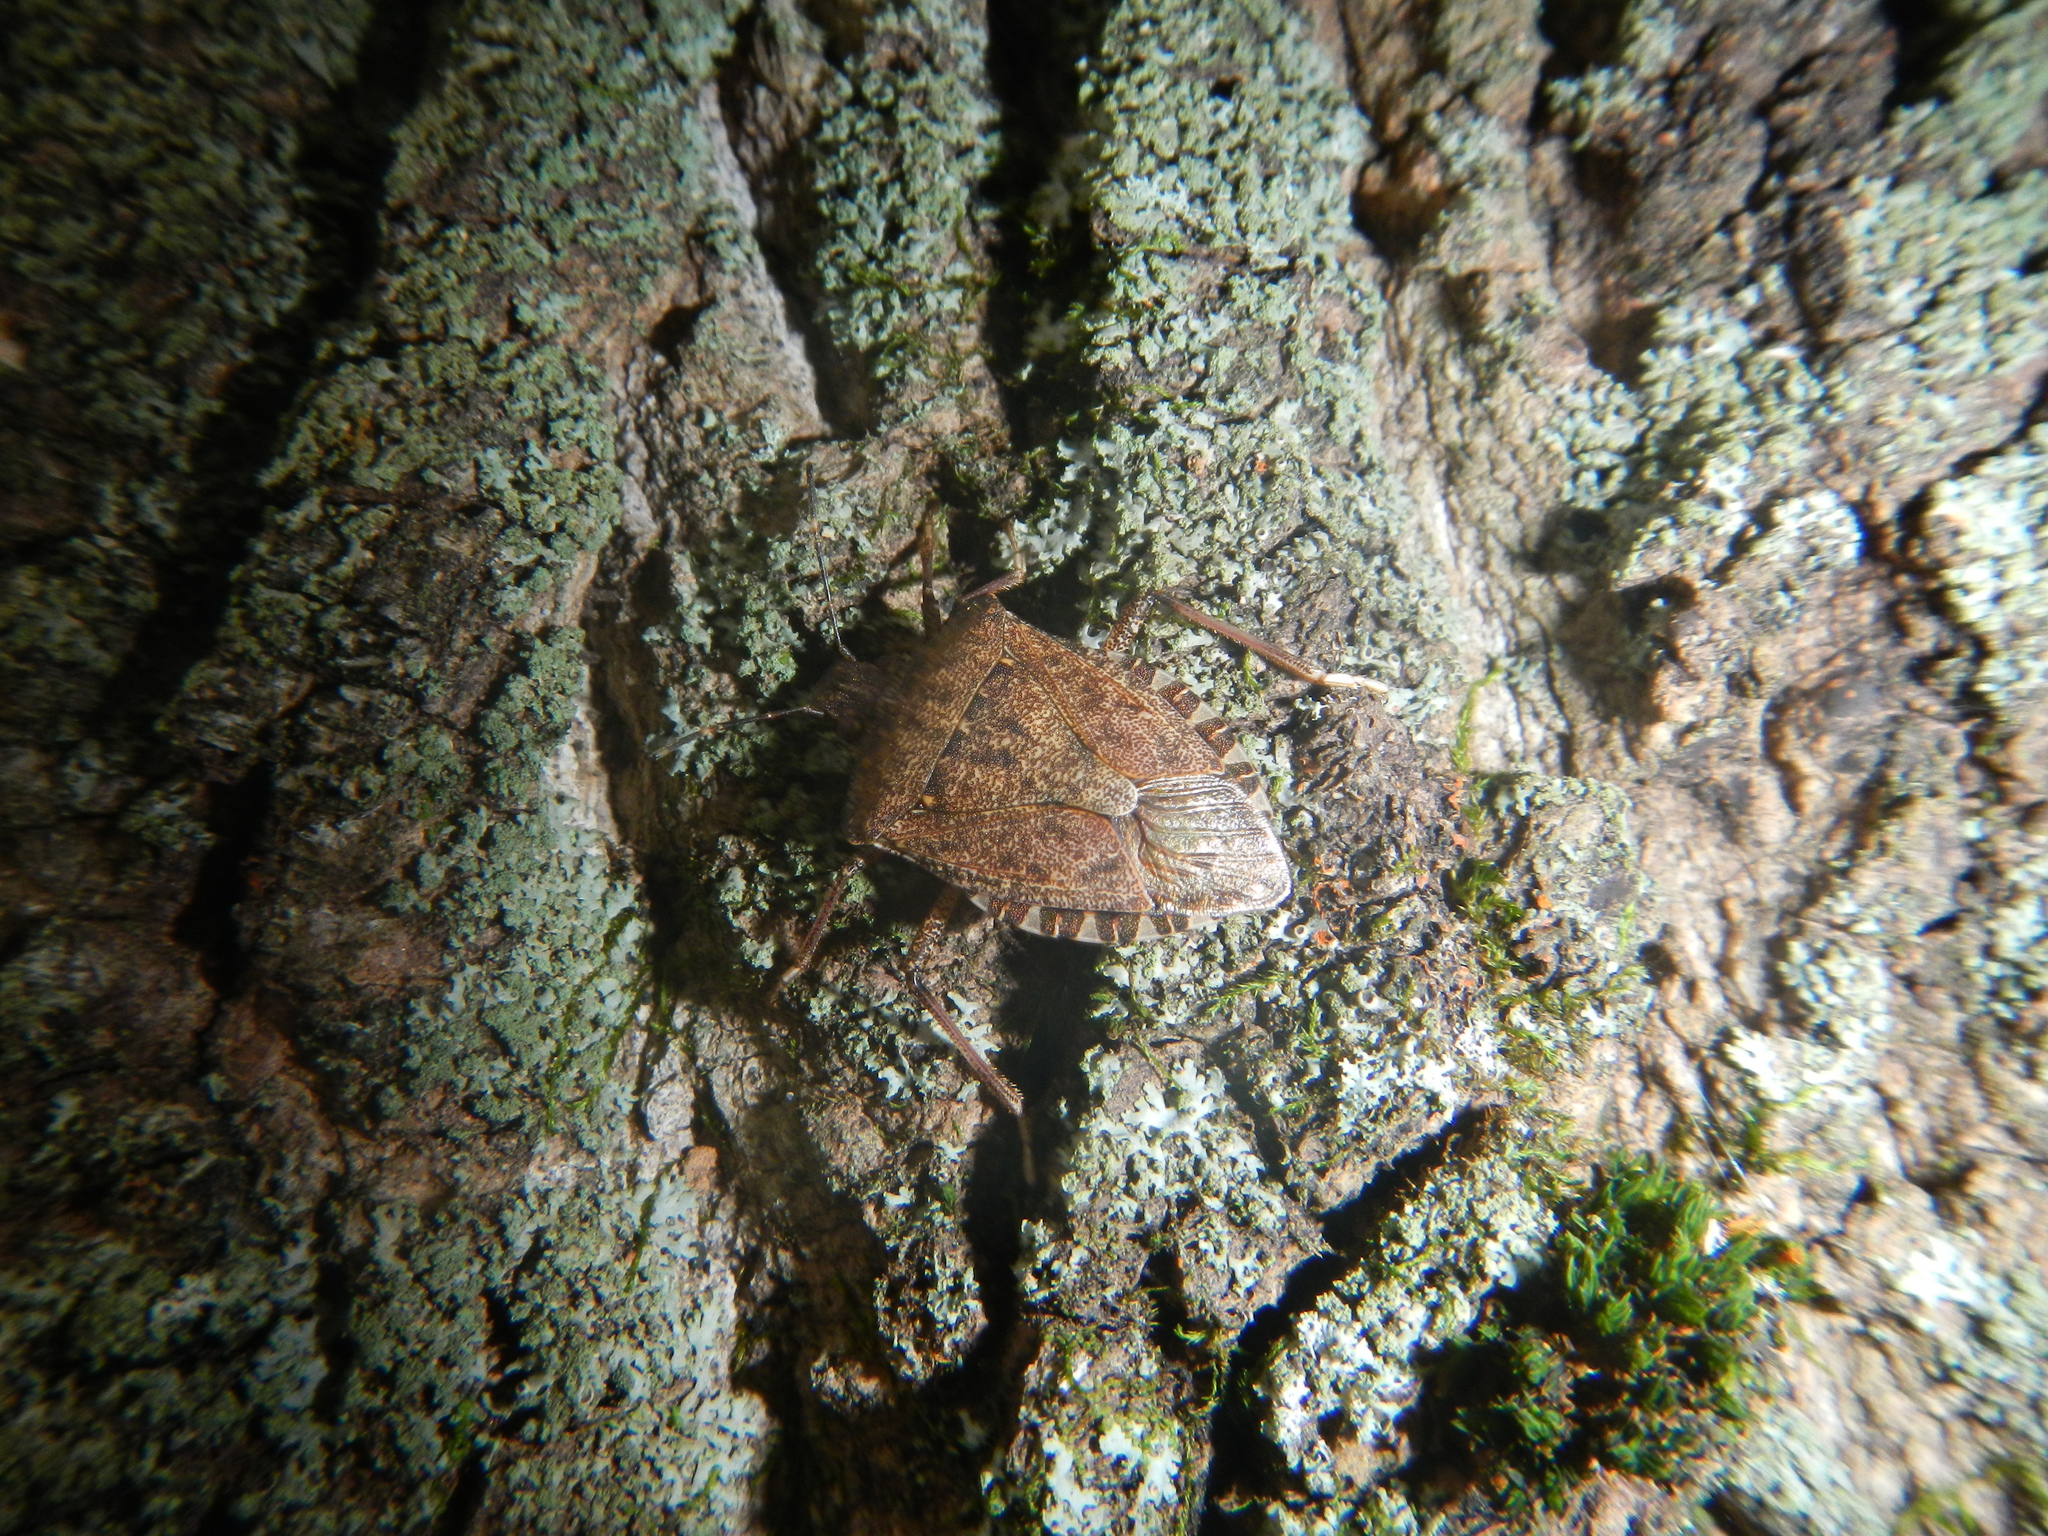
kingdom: Animalia
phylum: Arthropoda
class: Insecta
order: Hemiptera
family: Pentatomidae
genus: Halyomorpha
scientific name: Halyomorpha halys
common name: Brown marmorated stink bug
